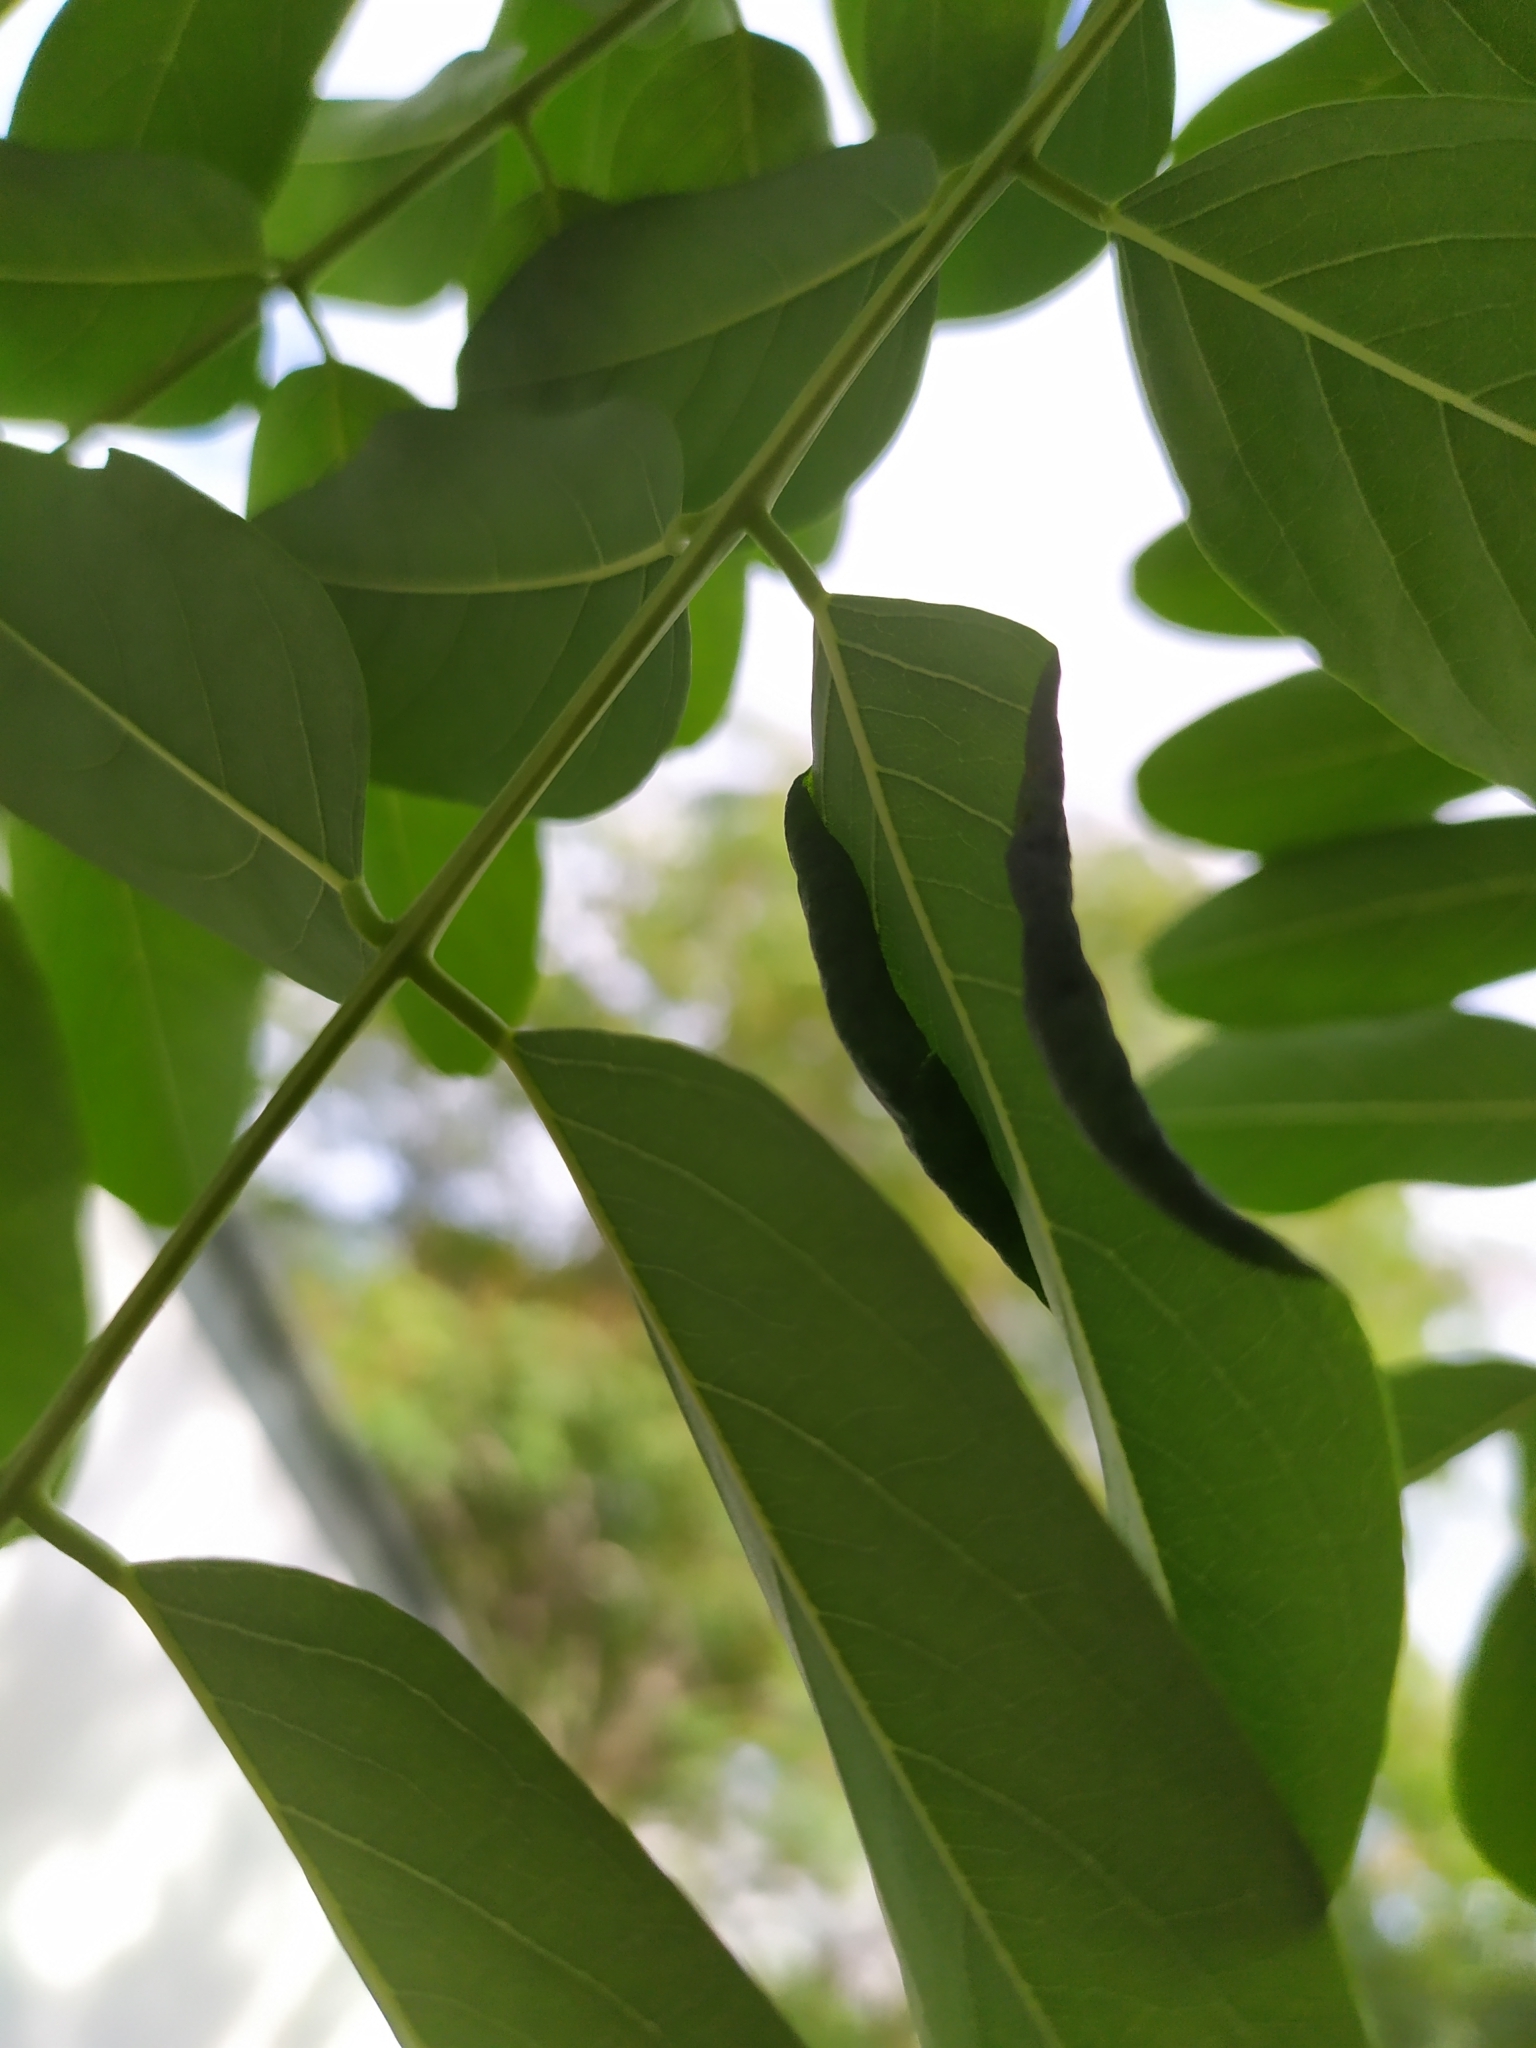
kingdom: Animalia
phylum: Arthropoda
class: Insecta
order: Diptera
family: Cecidomyiidae
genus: Obolodiplosis
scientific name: Obolodiplosis robiniae
